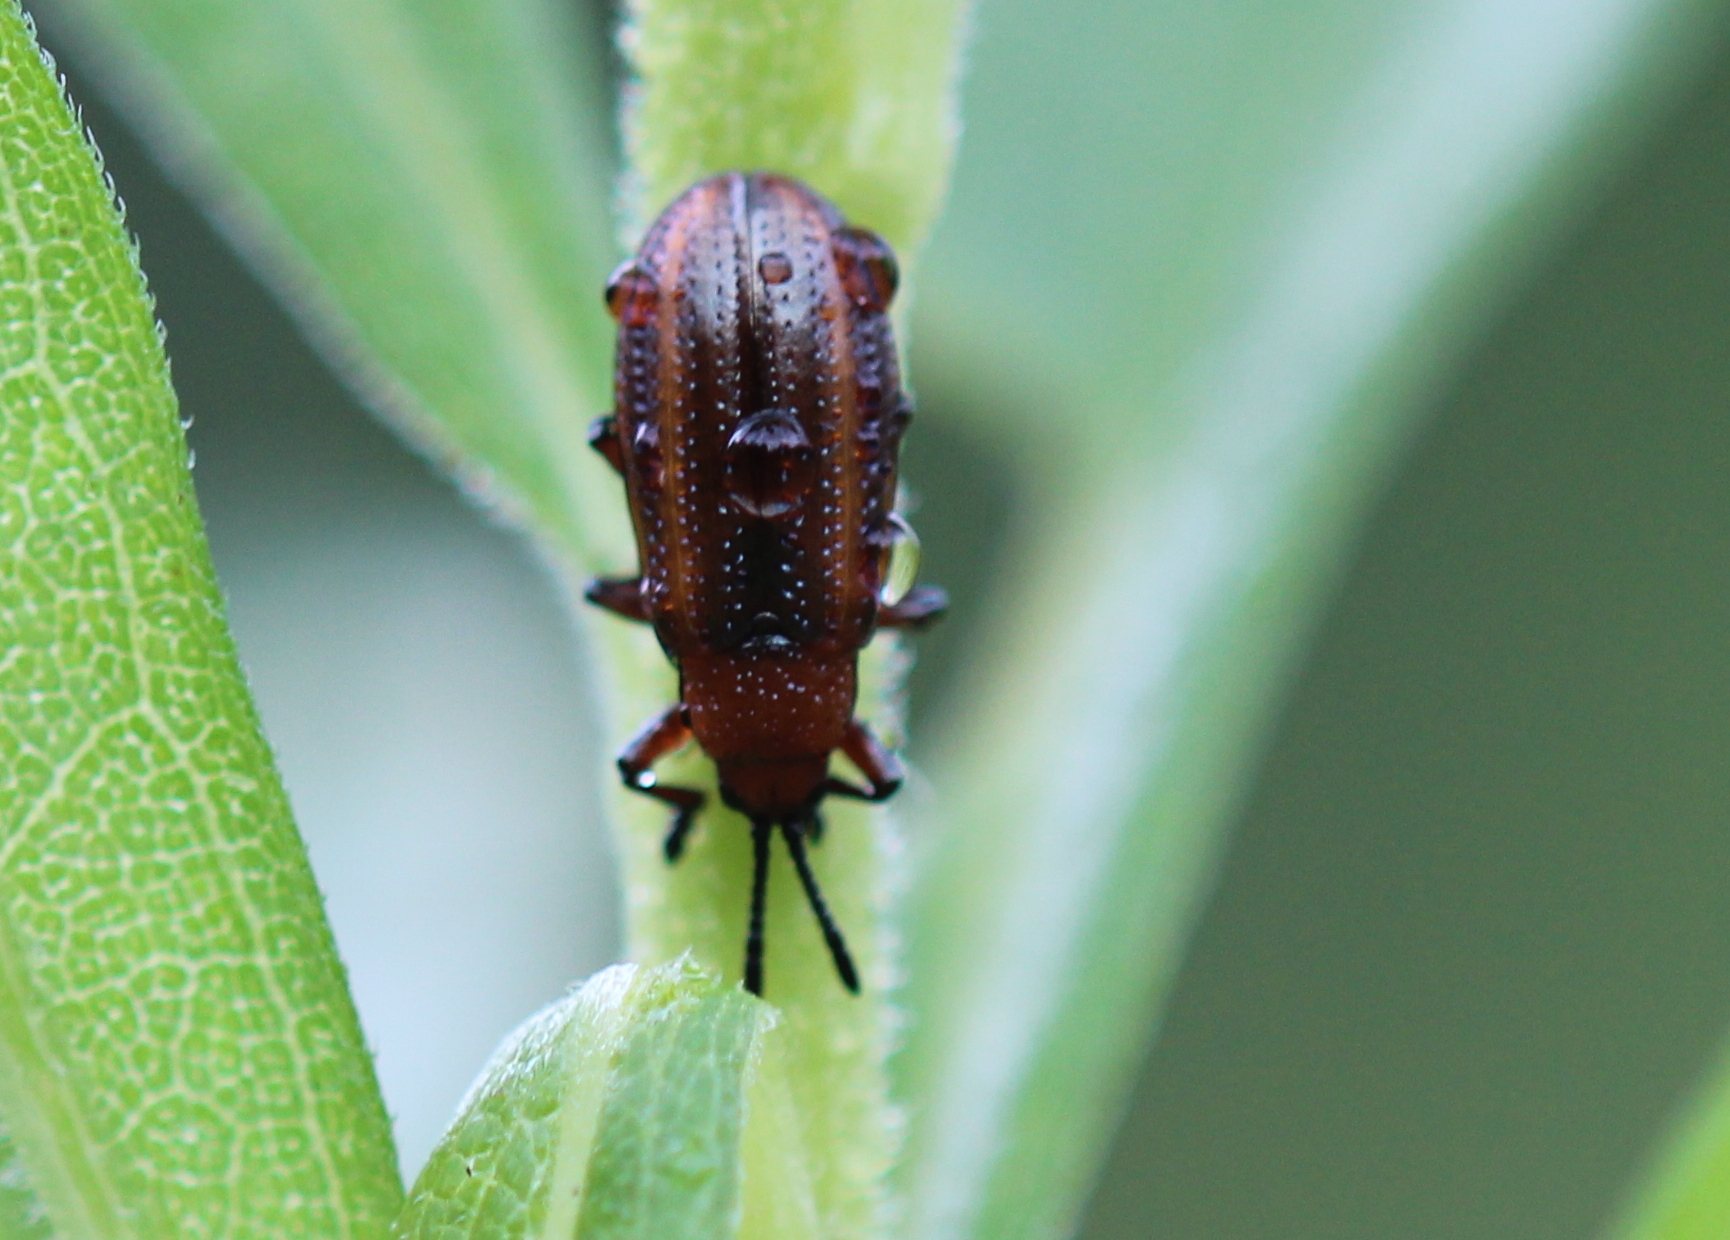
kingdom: Animalia
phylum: Arthropoda
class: Insecta
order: Coleoptera
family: Chrysomelidae
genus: Microrhopala
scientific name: Microrhopala vittata
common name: Goldenrod leaf miner beetle
